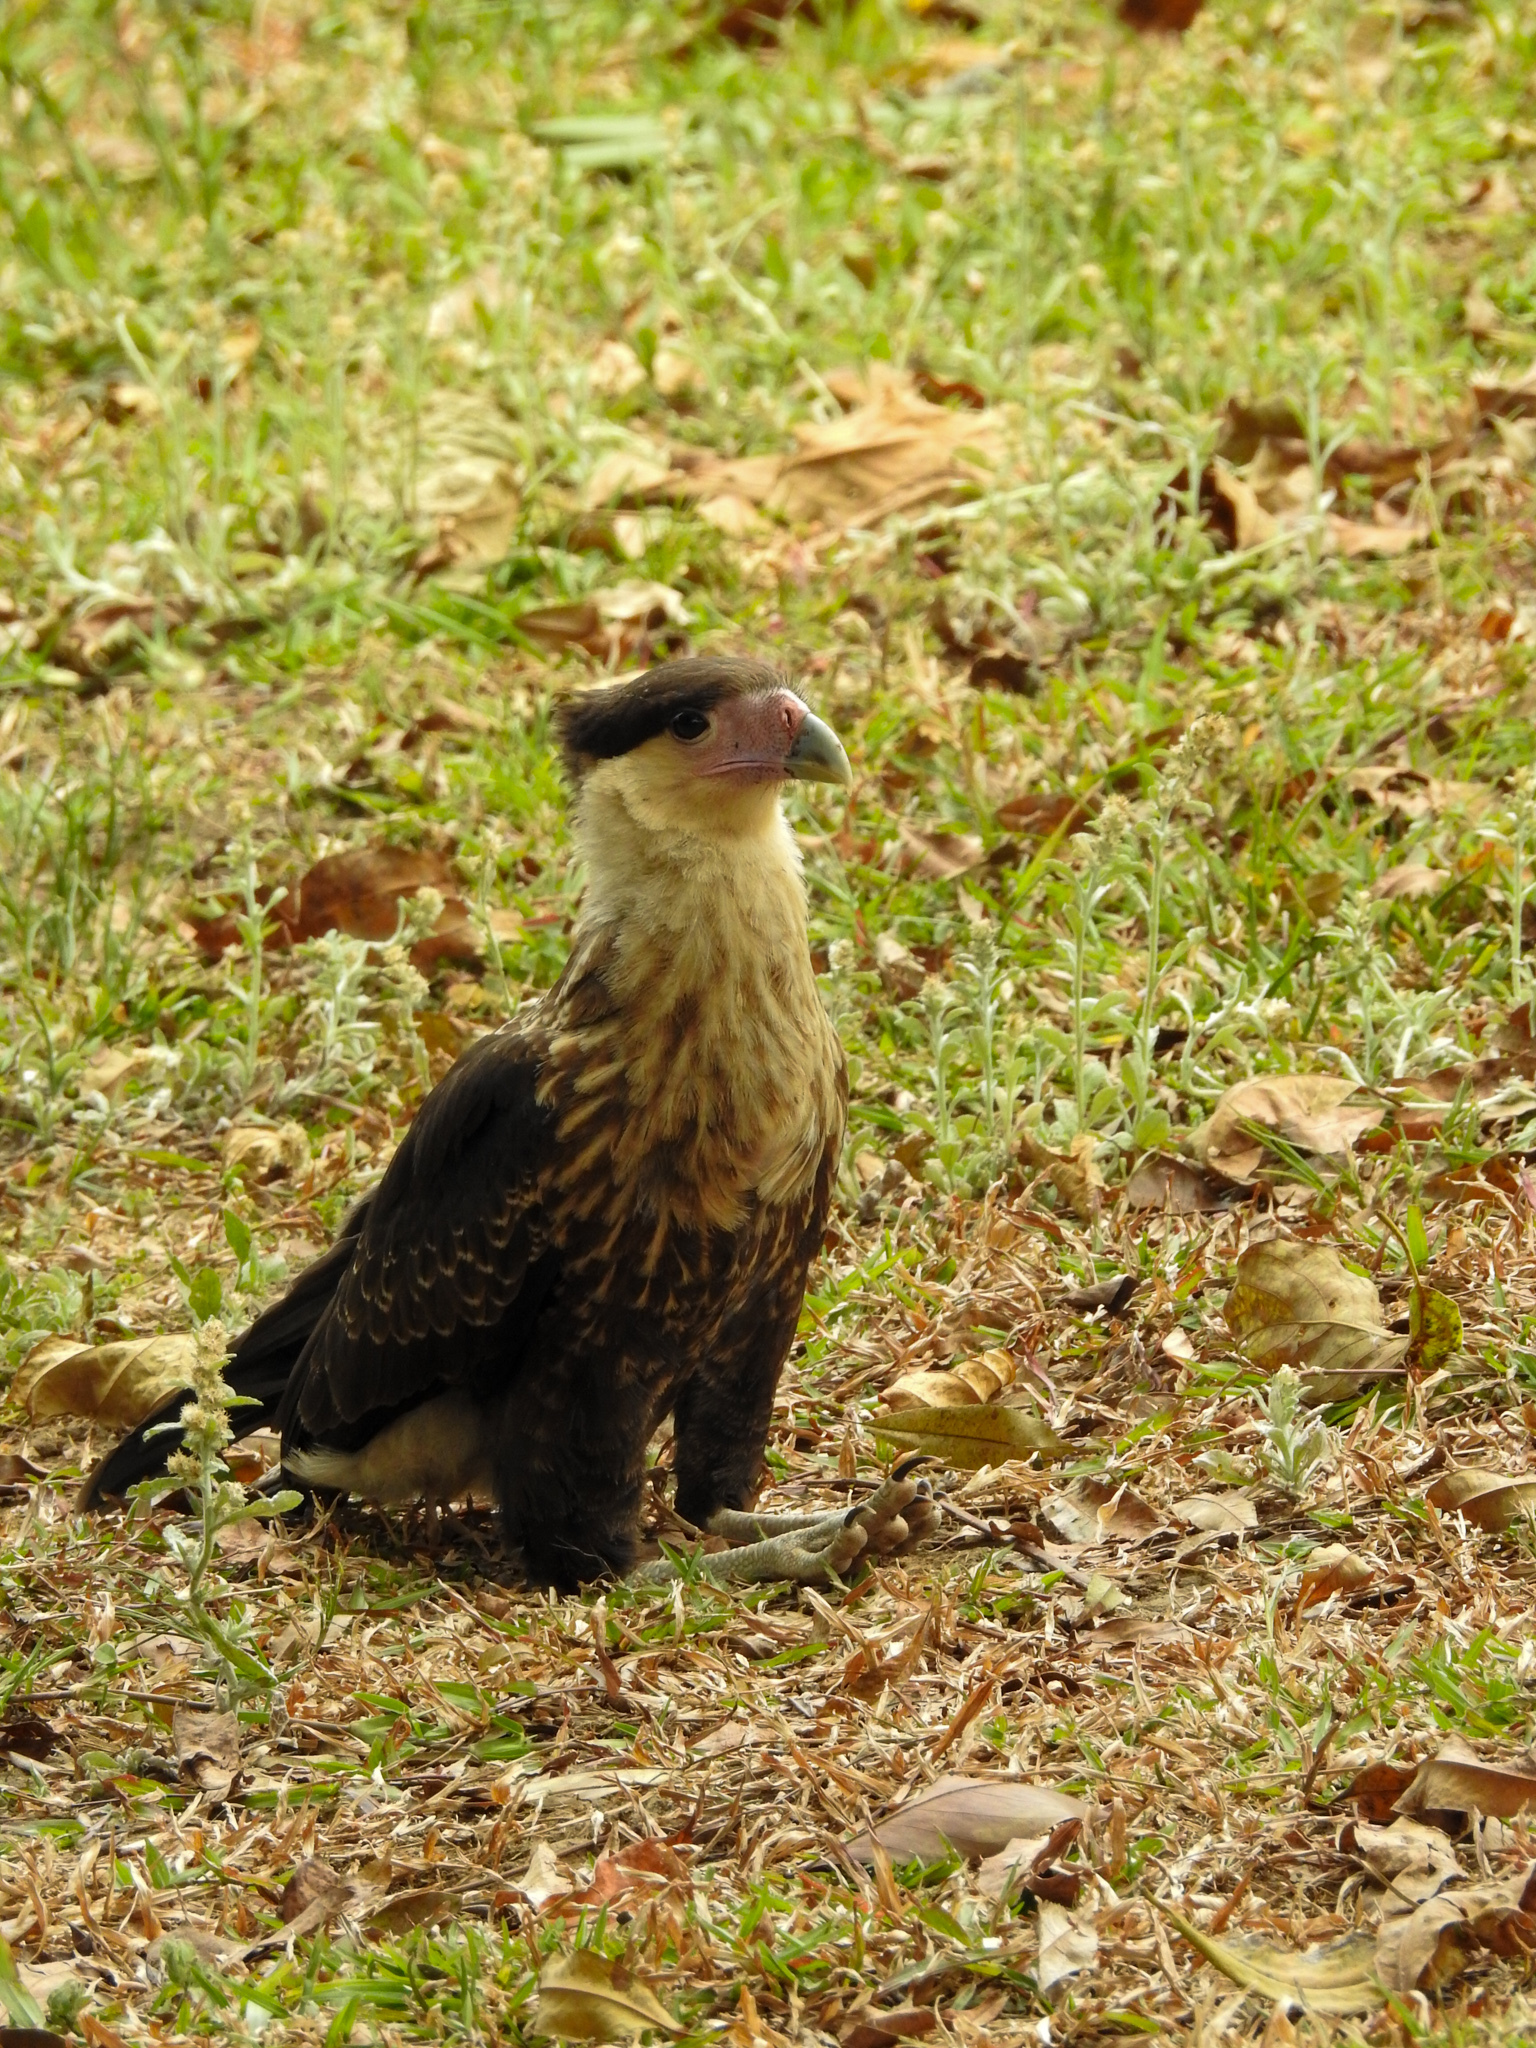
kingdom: Animalia
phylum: Chordata
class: Aves
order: Falconiformes
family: Falconidae
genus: Caracara
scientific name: Caracara plancus
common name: Southern caracara
